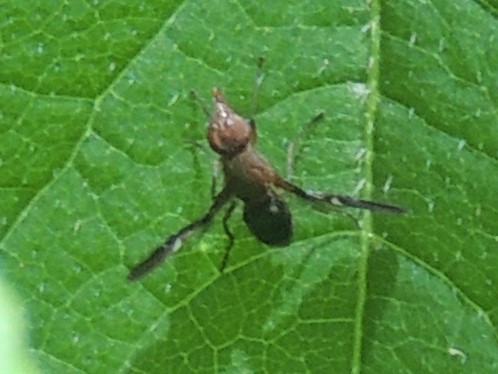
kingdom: Animalia
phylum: Arthropoda
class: Insecta
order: Diptera
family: Ulidiidae
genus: Delphinia
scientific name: Delphinia picta
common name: Common picture-winged fly
